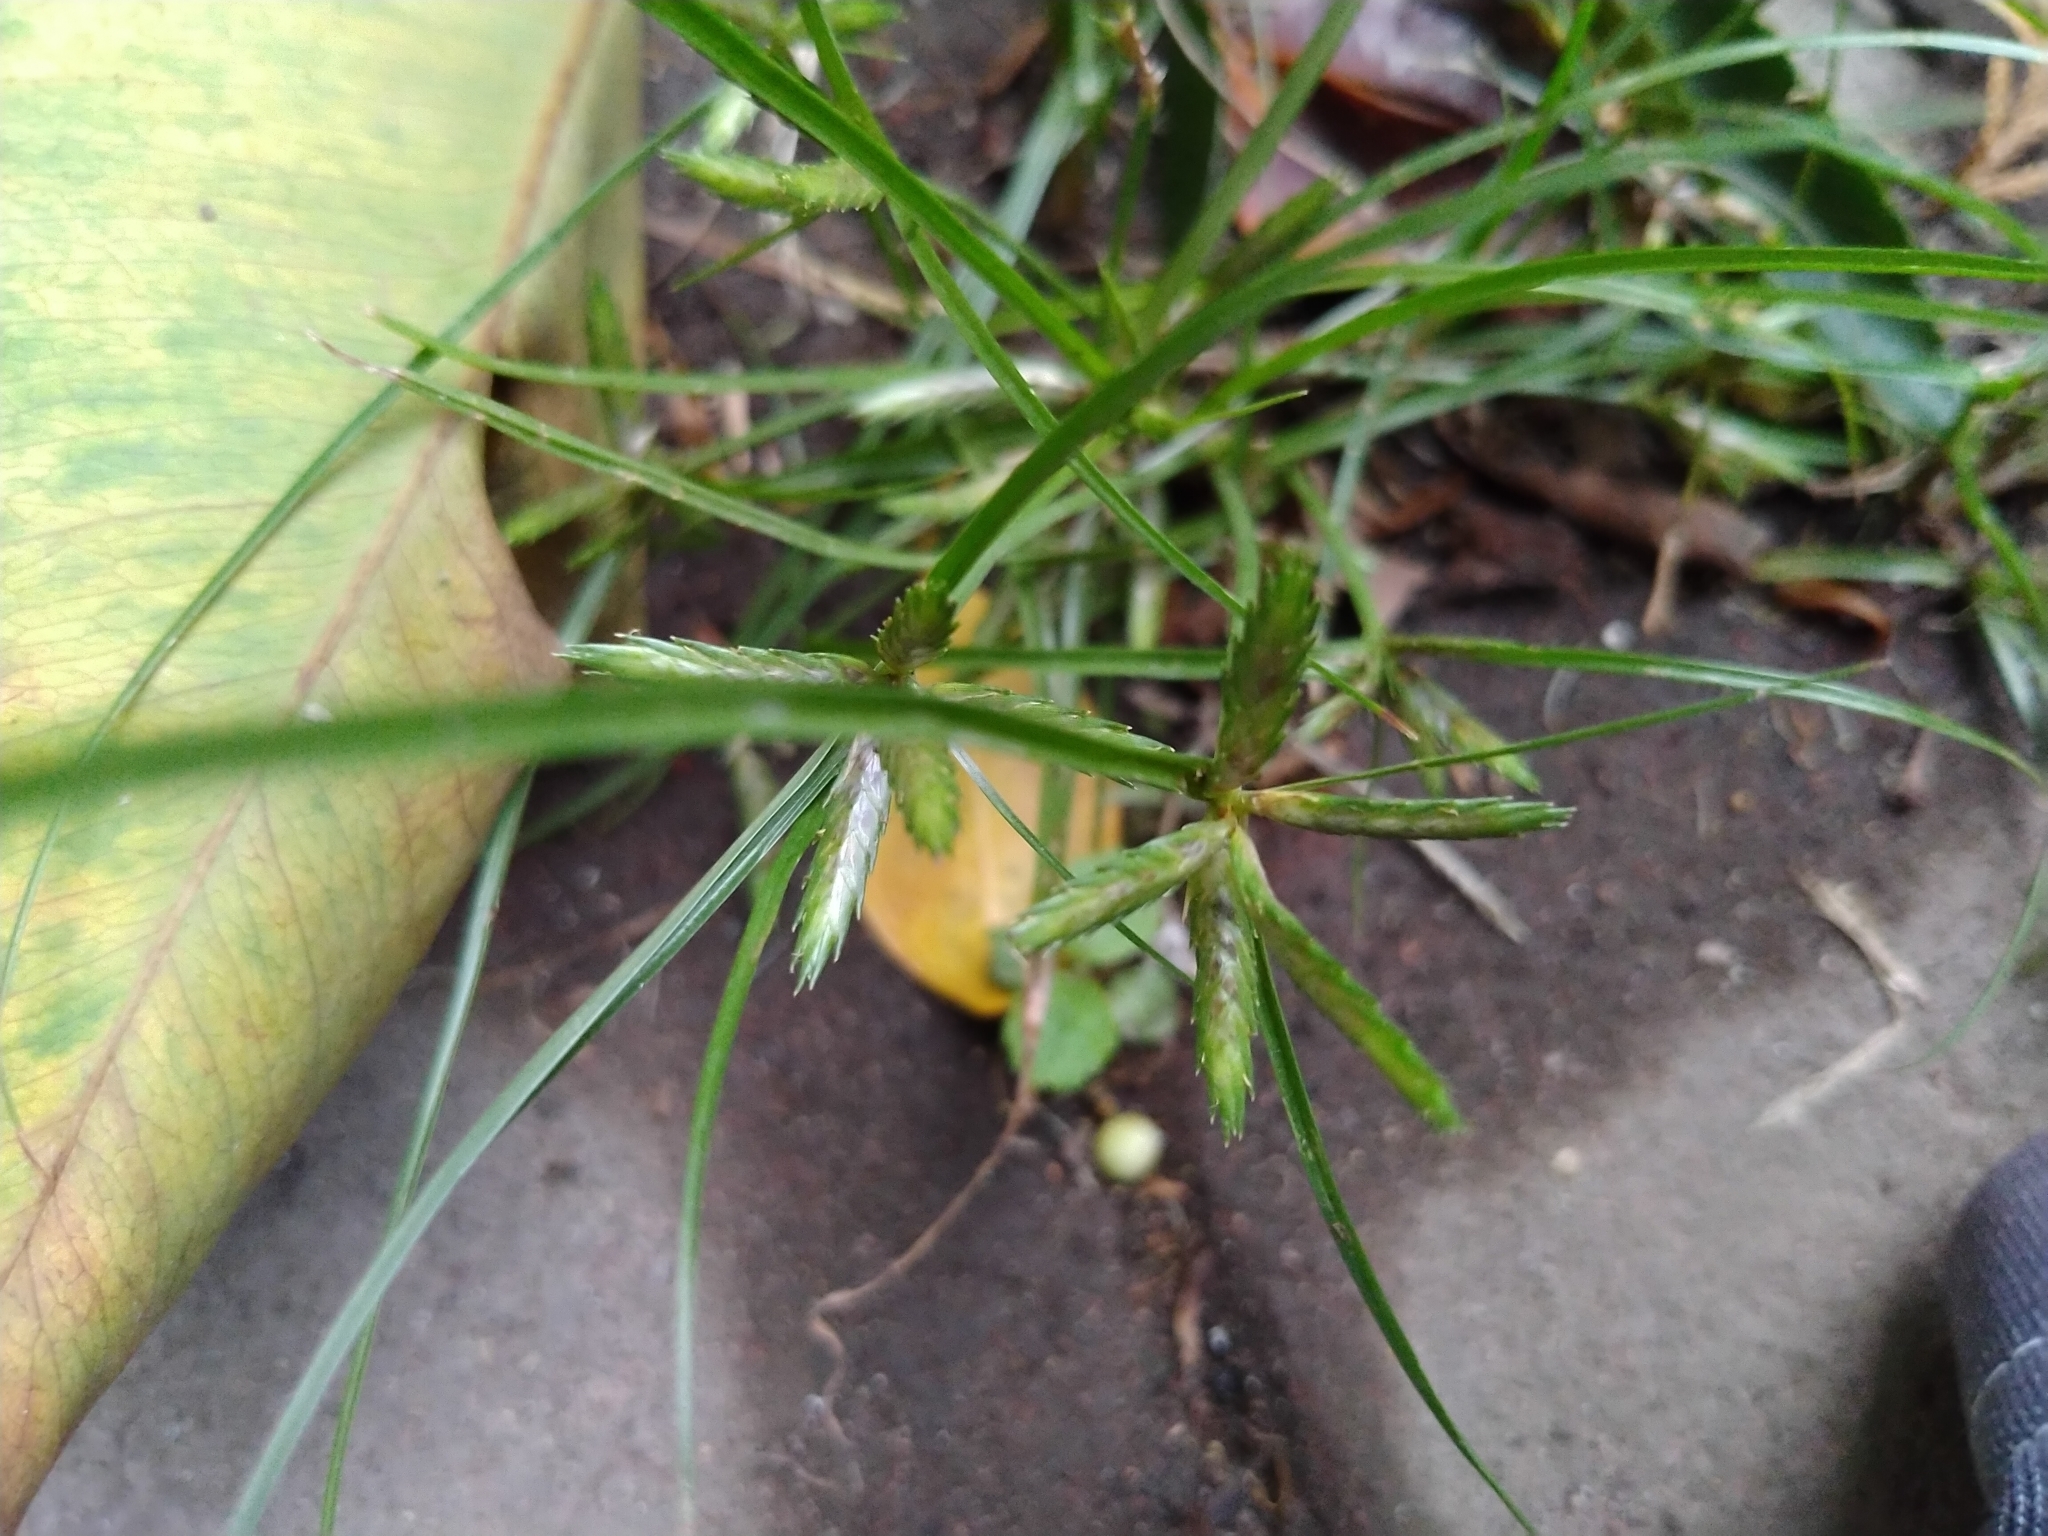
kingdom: Plantae
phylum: Tracheophyta
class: Liliopsida
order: Poales
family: Cyperaceae
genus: Cyperus
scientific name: Cyperus compressus
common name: Poorland flatsedge
